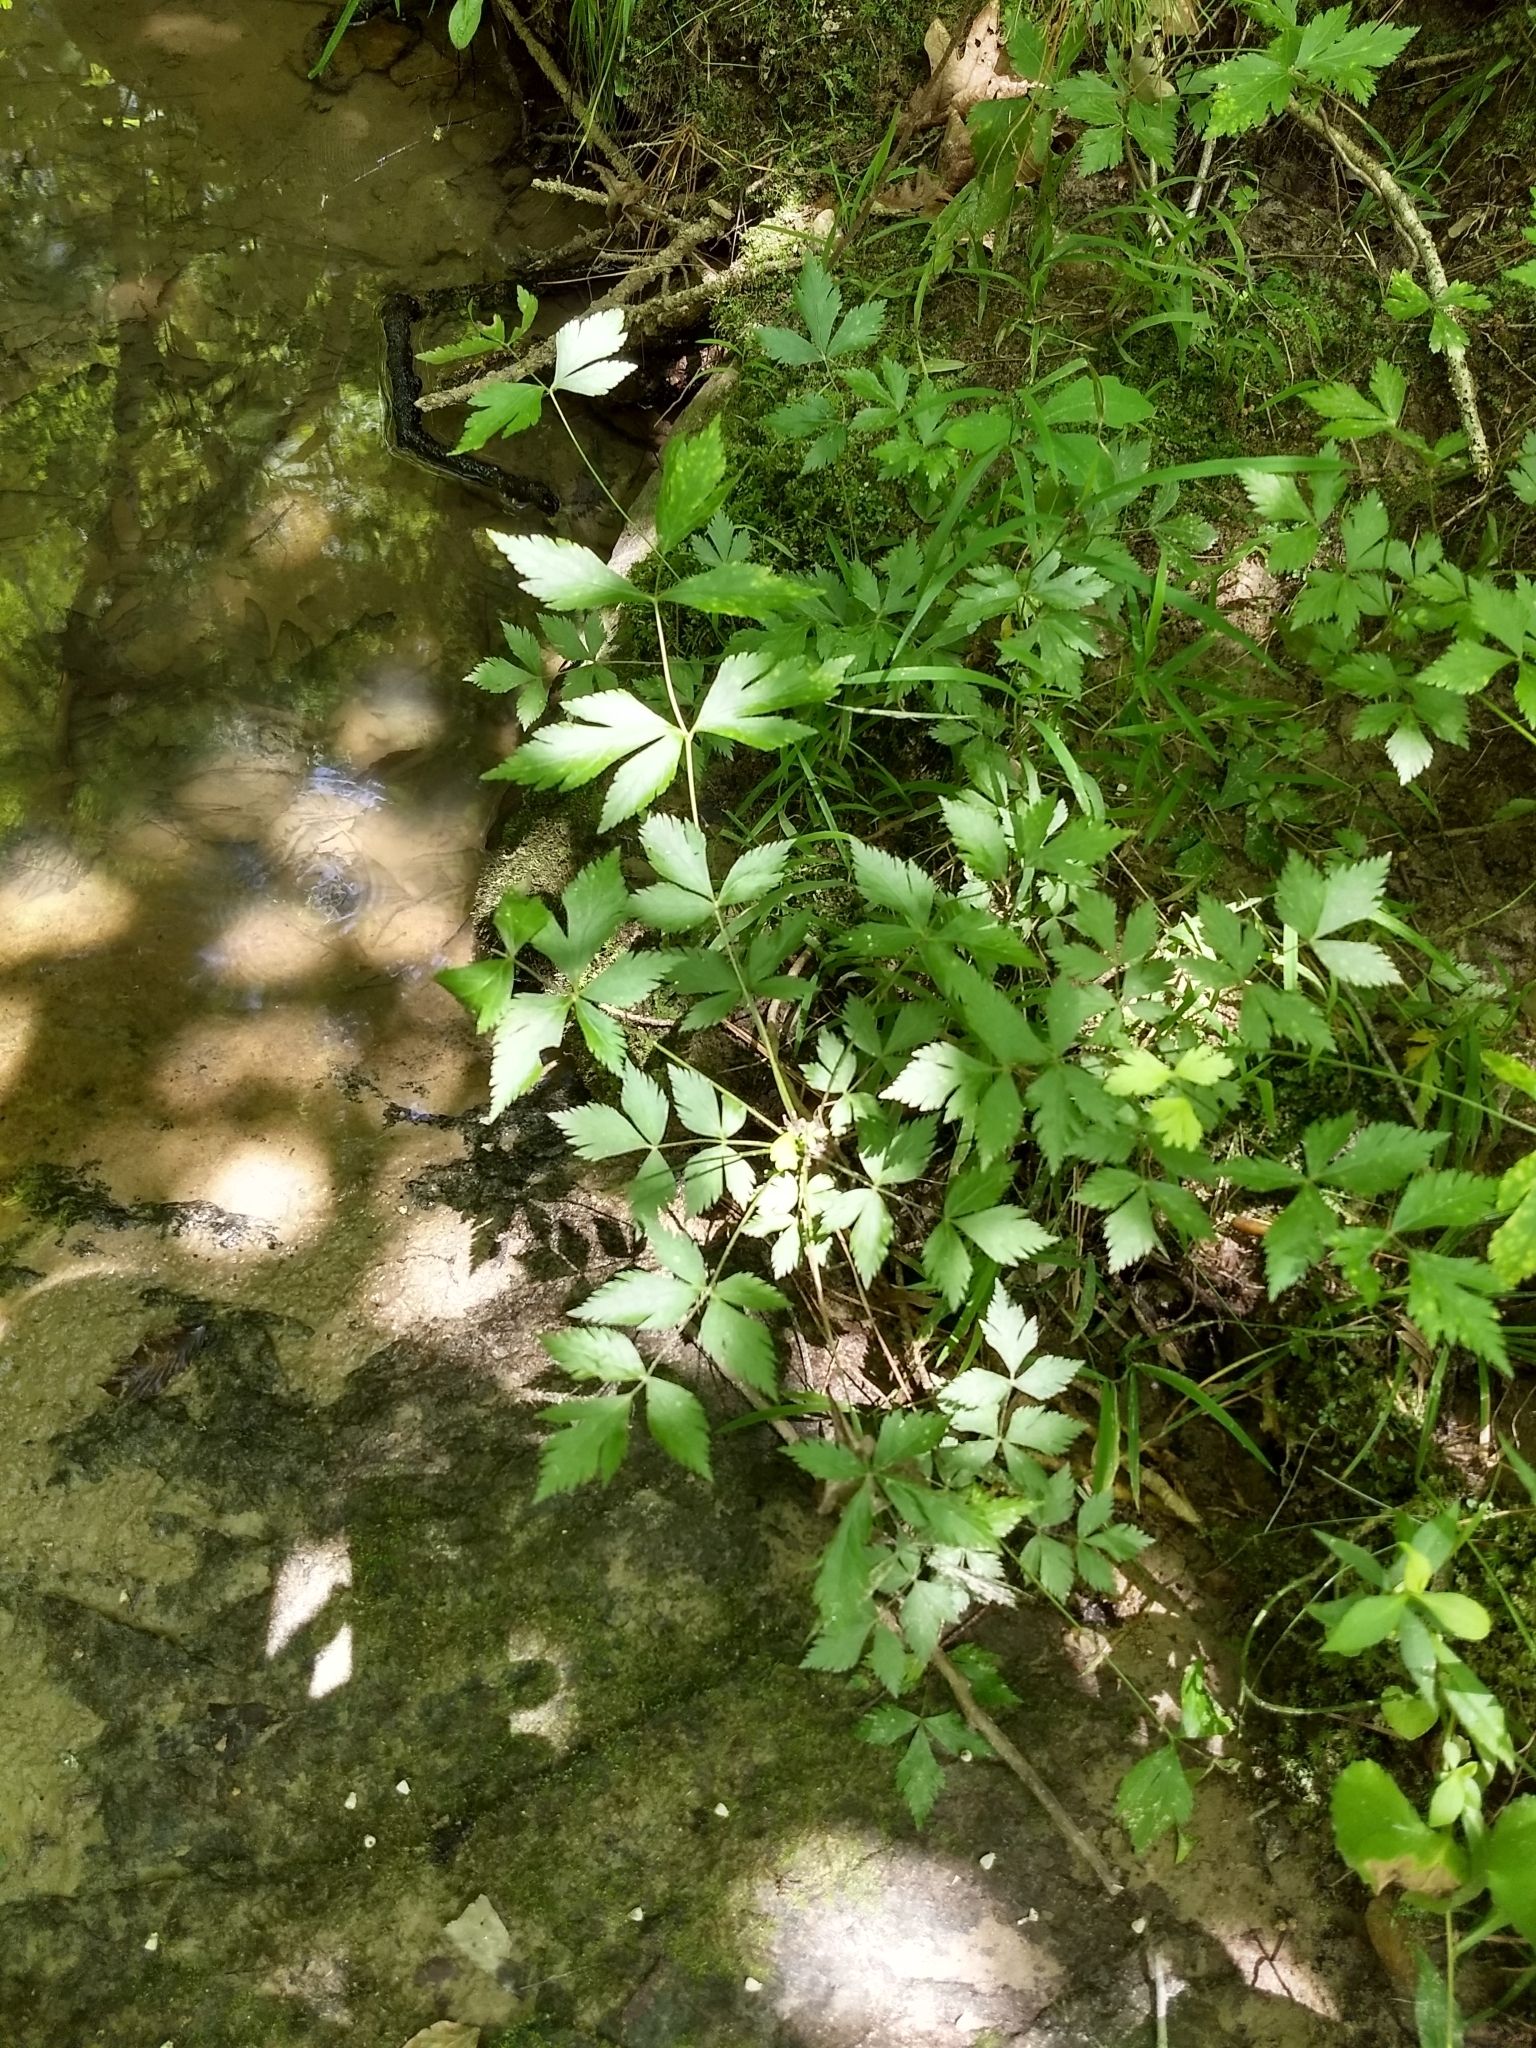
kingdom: Plantae
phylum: Tracheophyta
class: Magnoliopsida
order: Ranunculales
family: Ranunculaceae
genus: Xanthorhiza
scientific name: Xanthorhiza simplicissima
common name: Yellowroot
